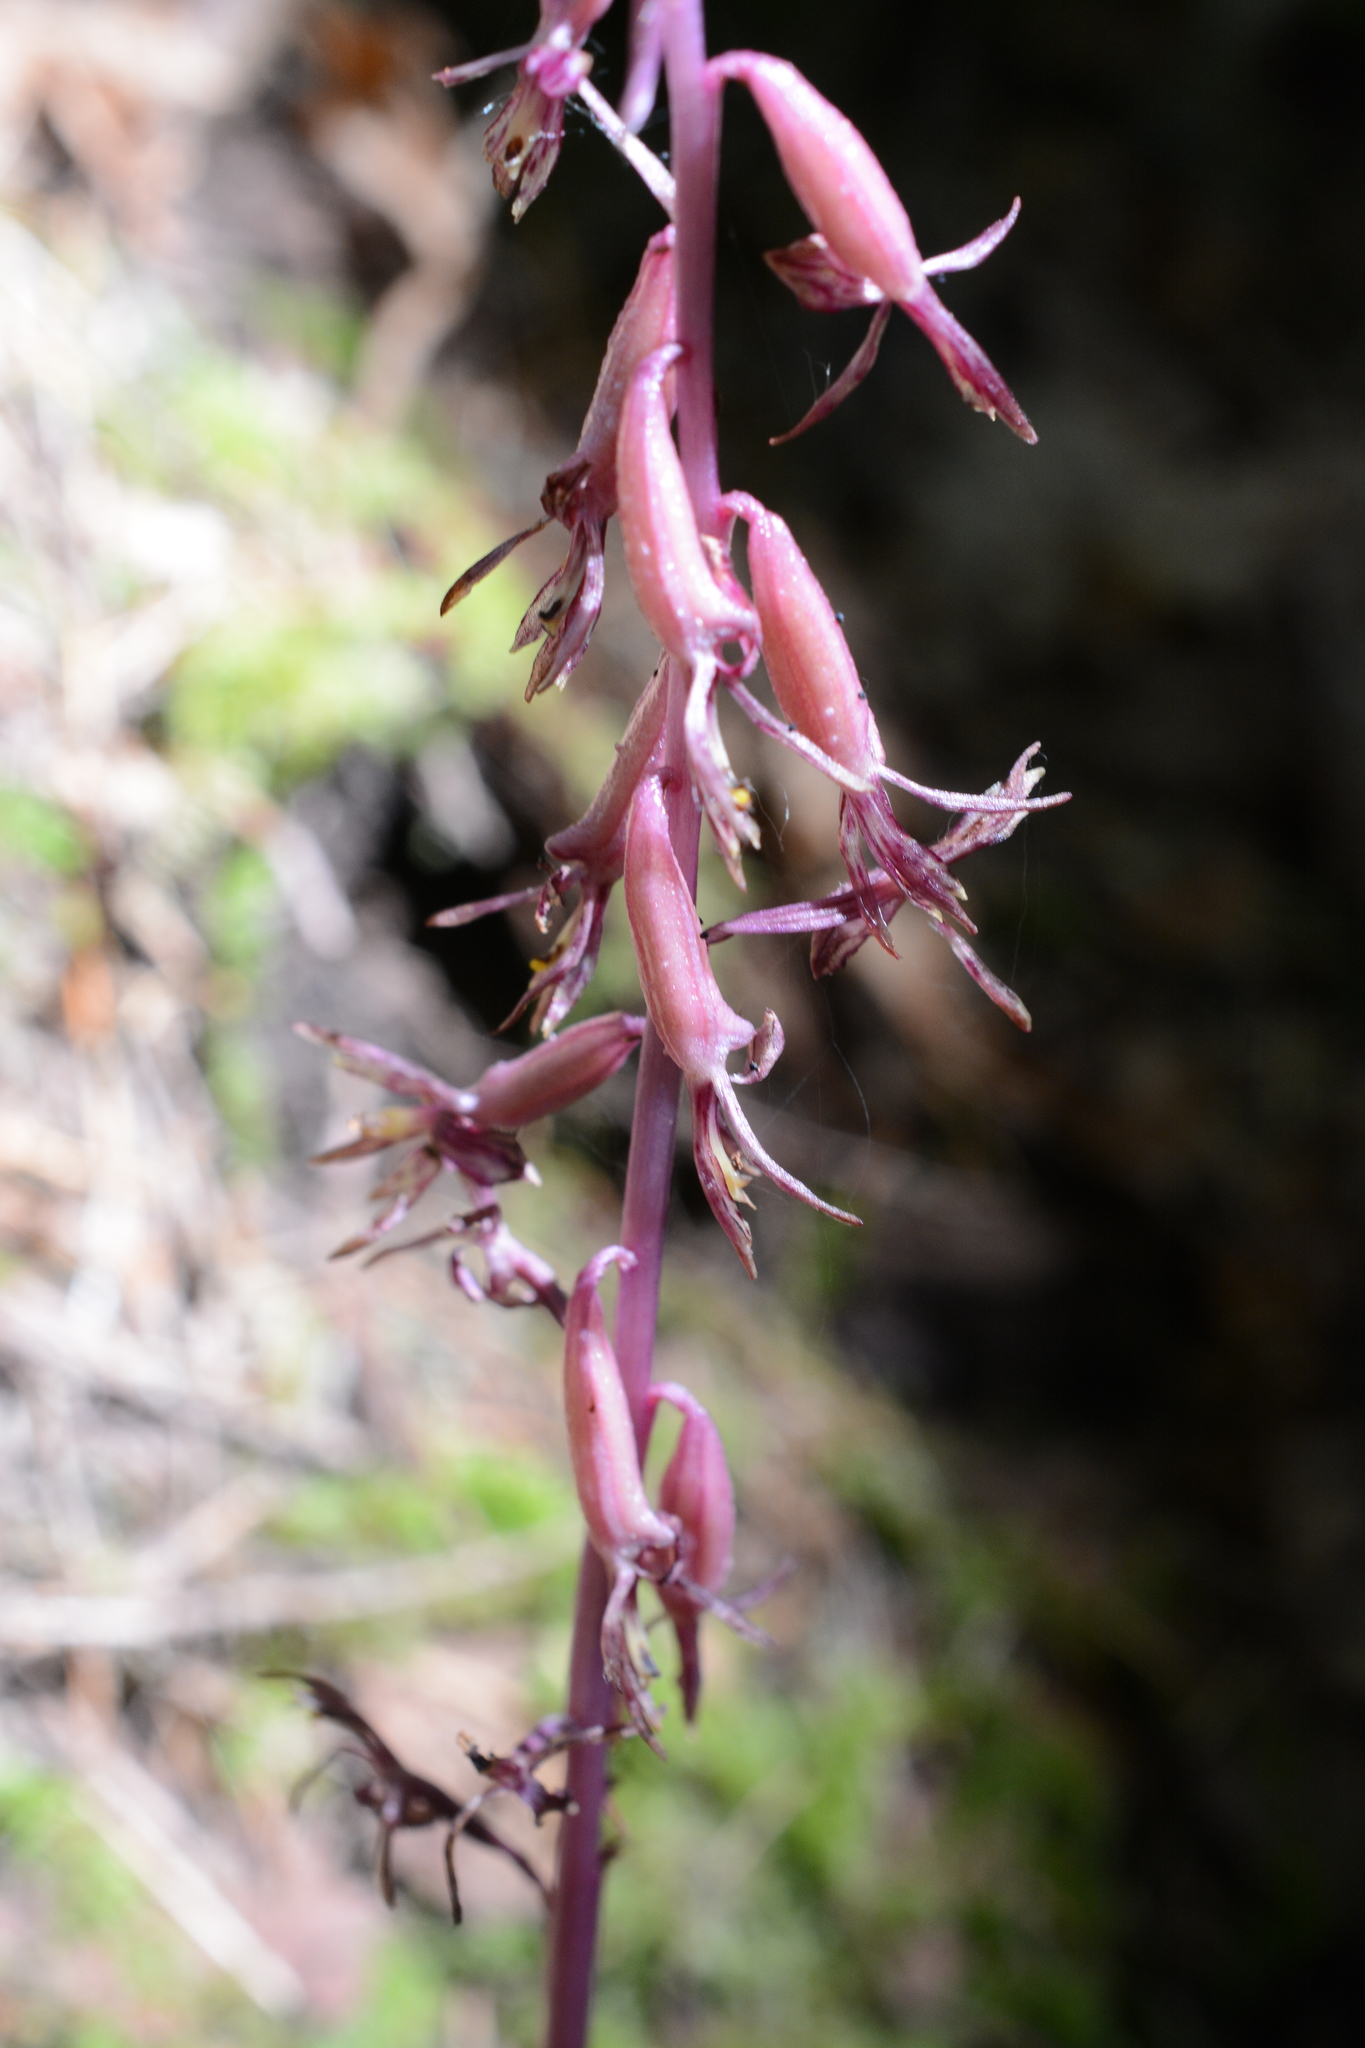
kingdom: Plantae
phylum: Tracheophyta
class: Liliopsida
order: Asparagales
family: Orchidaceae
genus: Corallorhiza
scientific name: Corallorhiza mertensiana
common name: Pacific coralroot
